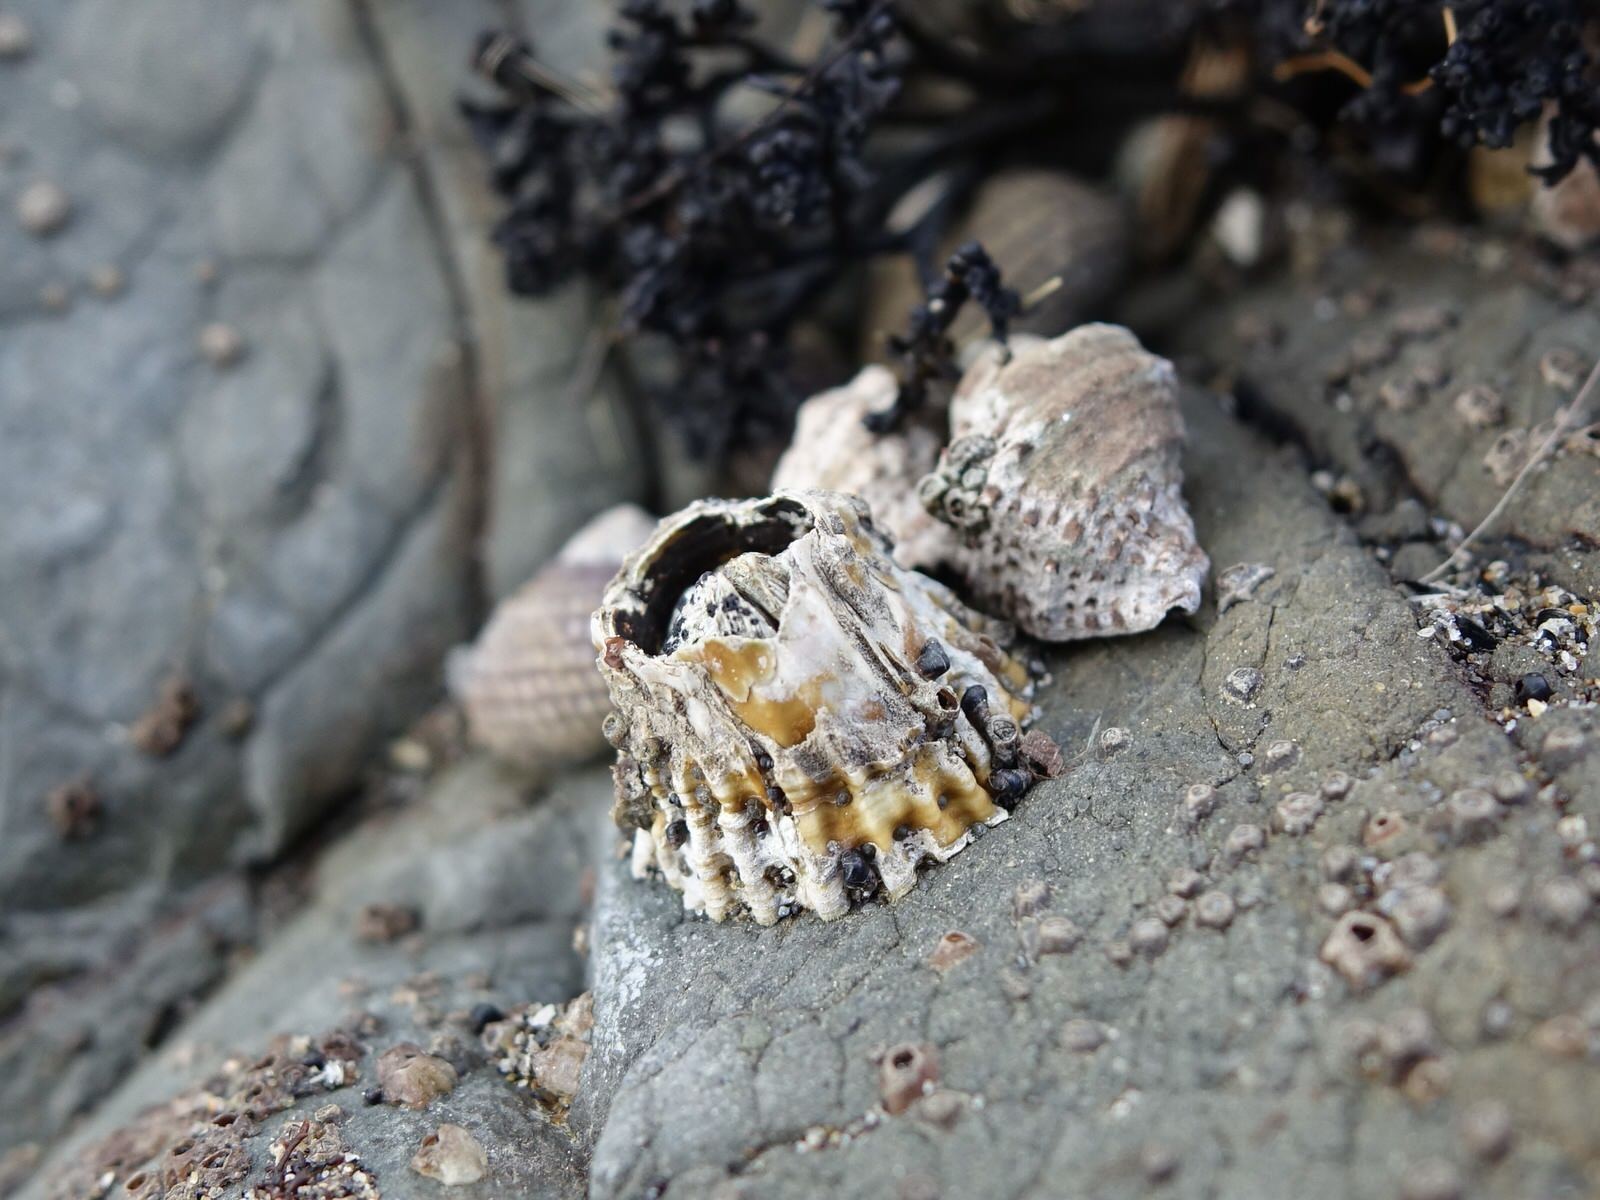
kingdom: Animalia
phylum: Arthropoda
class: Maxillopoda
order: Sessilia
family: Tetraclitidae
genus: Epopella
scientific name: Epopella plicata
